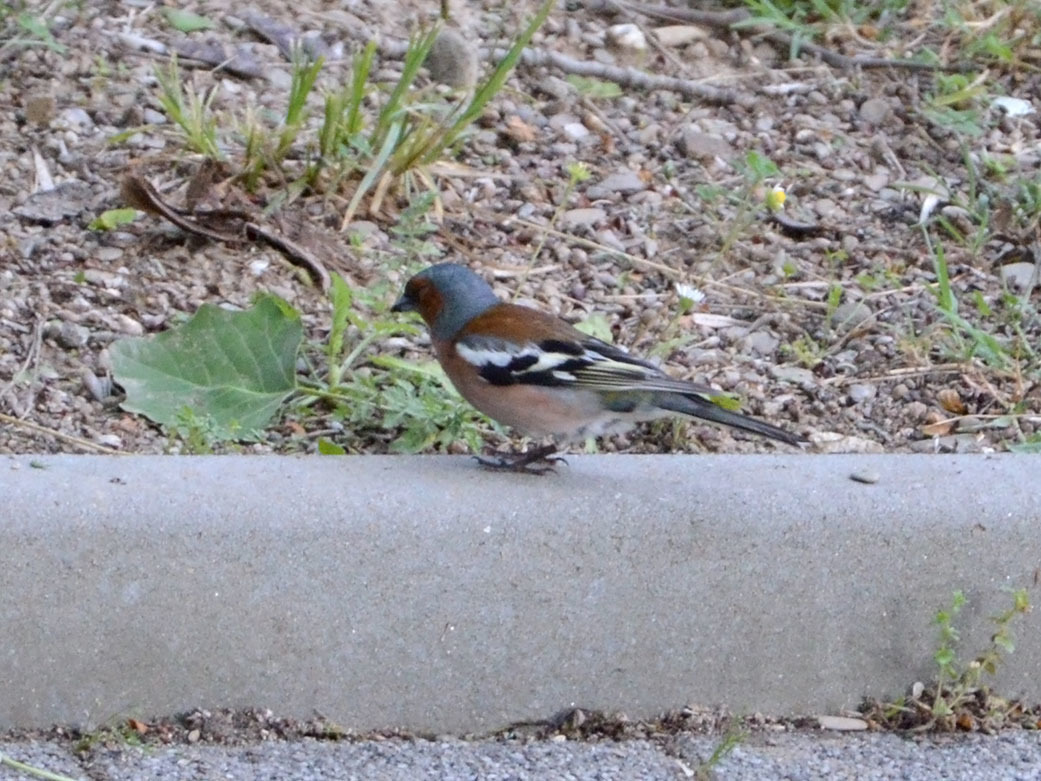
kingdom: Animalia
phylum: Chordata
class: Aves
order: Passeriformes
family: Fringillidae
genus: Fringilla
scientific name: Fringilla coelebs
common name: Common chaffinch
